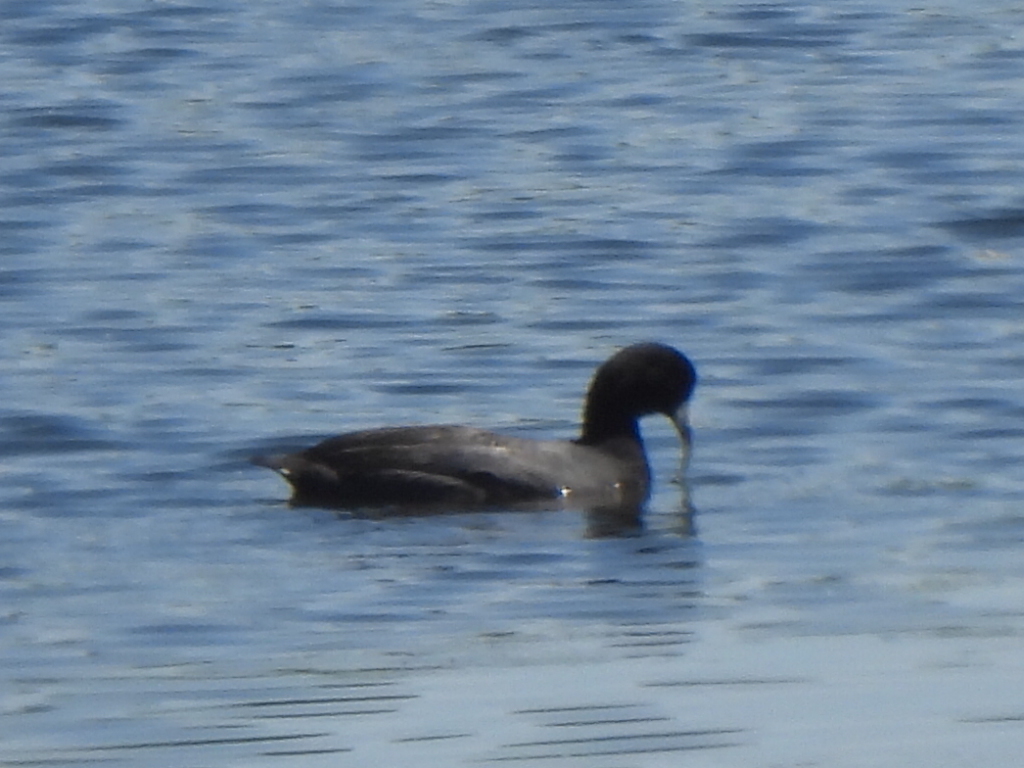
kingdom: Animalia
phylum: Chordata
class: Aves
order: Gruiformes
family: Rallidae
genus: Fulica
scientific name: Fulica americana
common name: American coot
